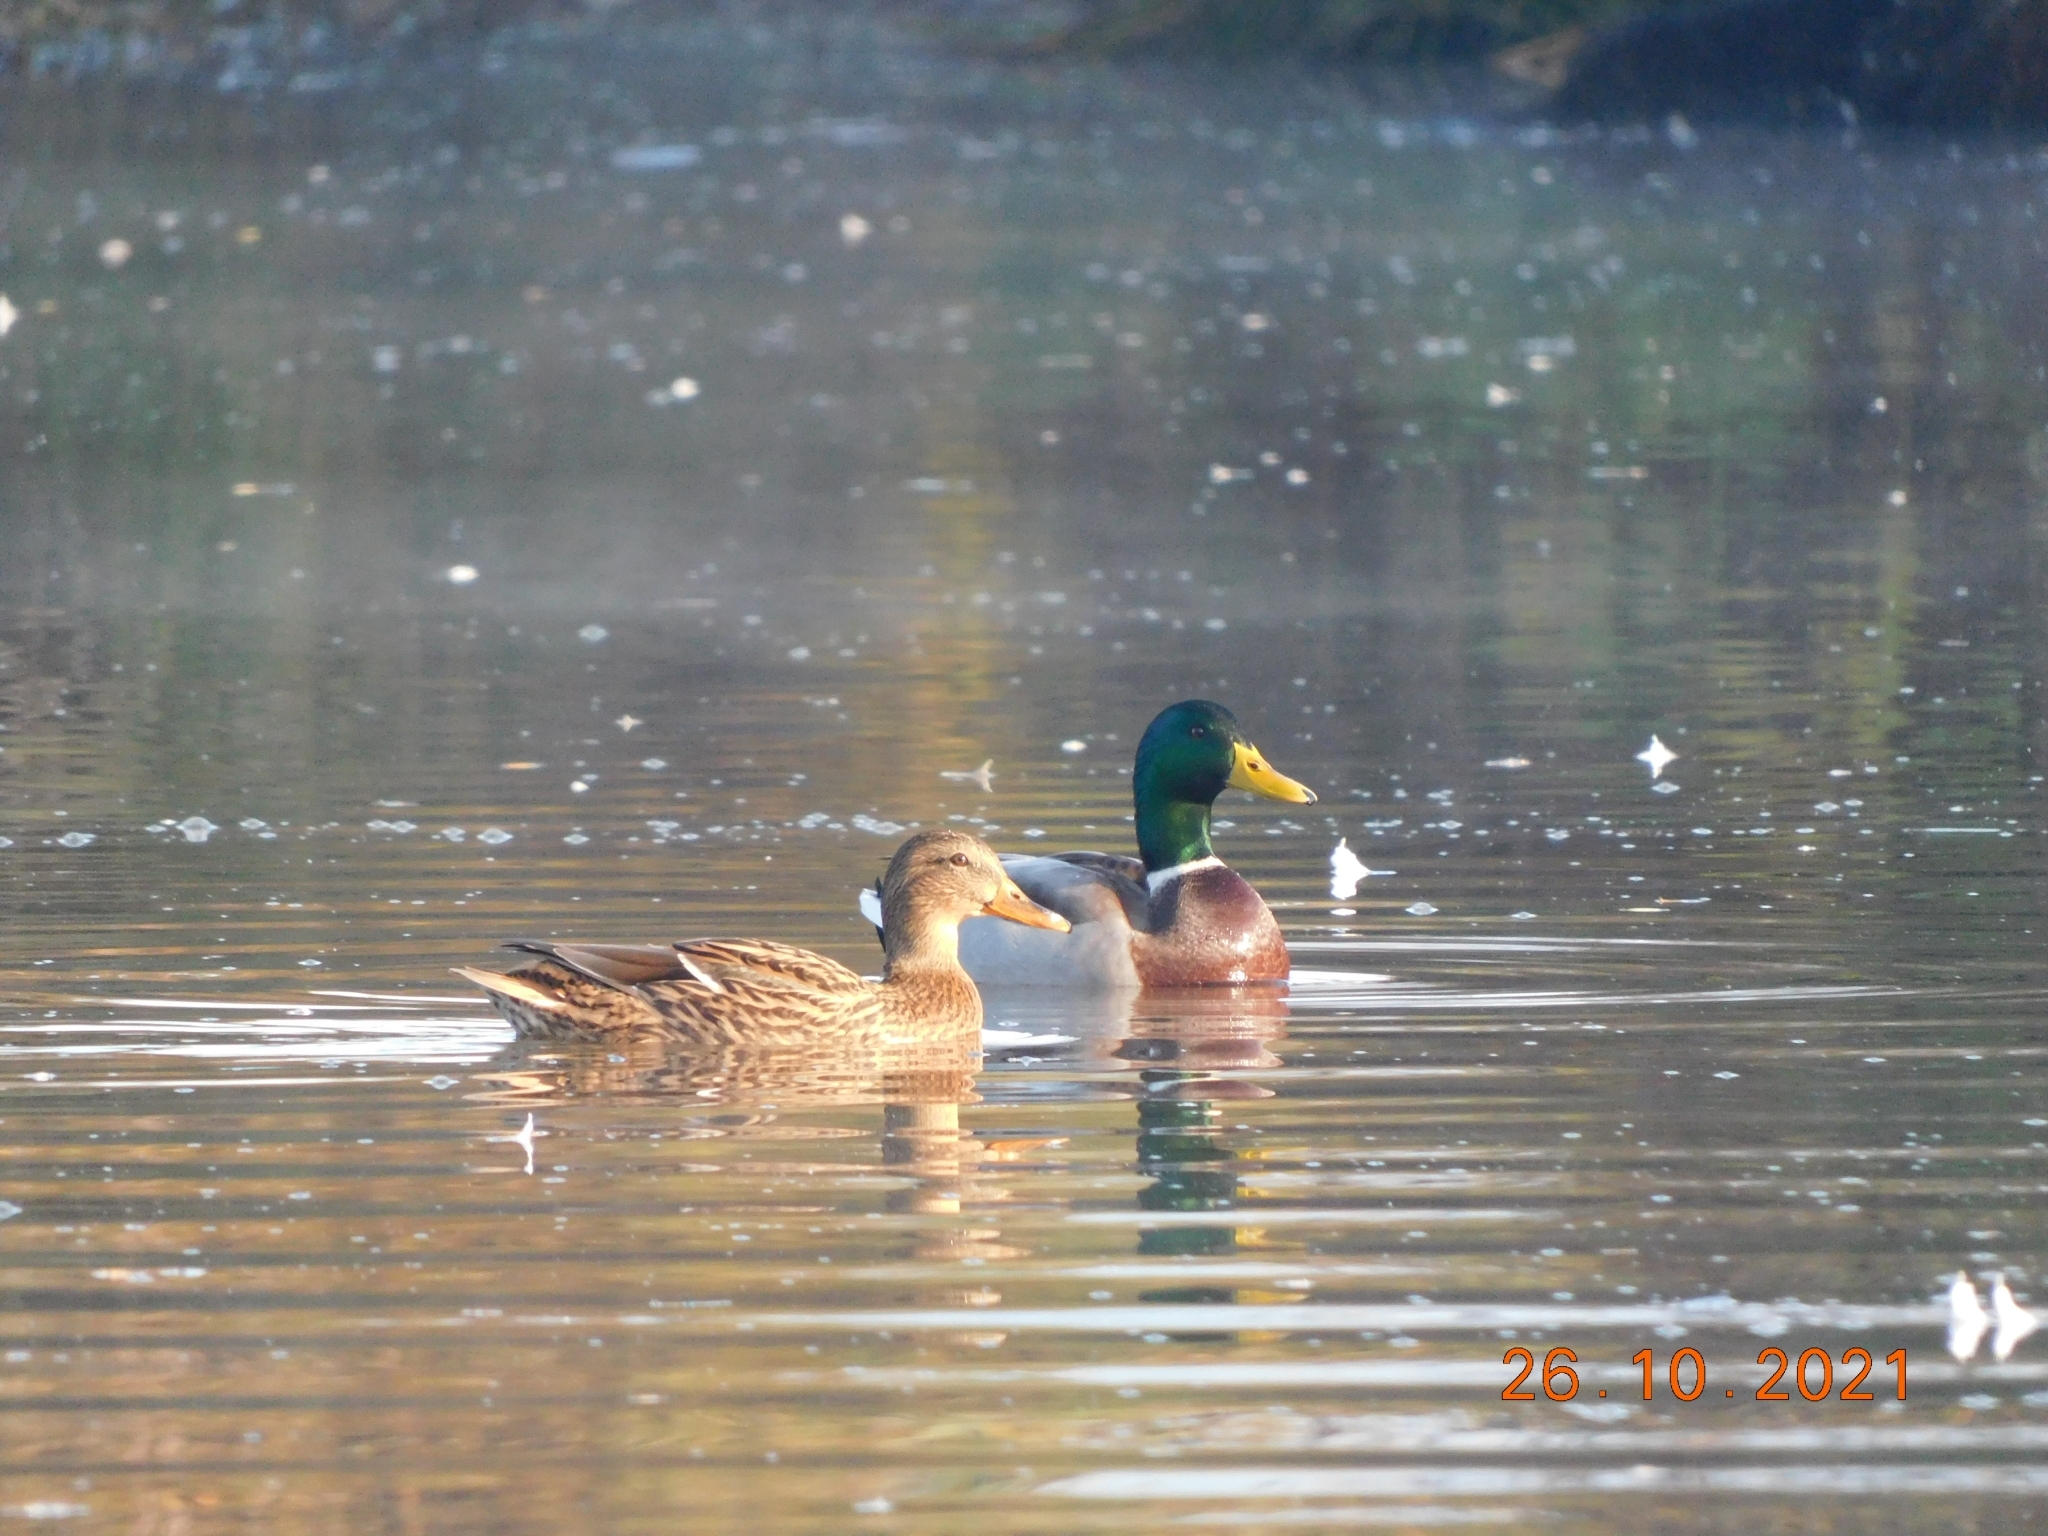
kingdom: Animalia
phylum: Chordata
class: Aves
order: Anseriformes
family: Anatidae
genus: Anas
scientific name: Anas platyrhynchos
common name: Mallard
